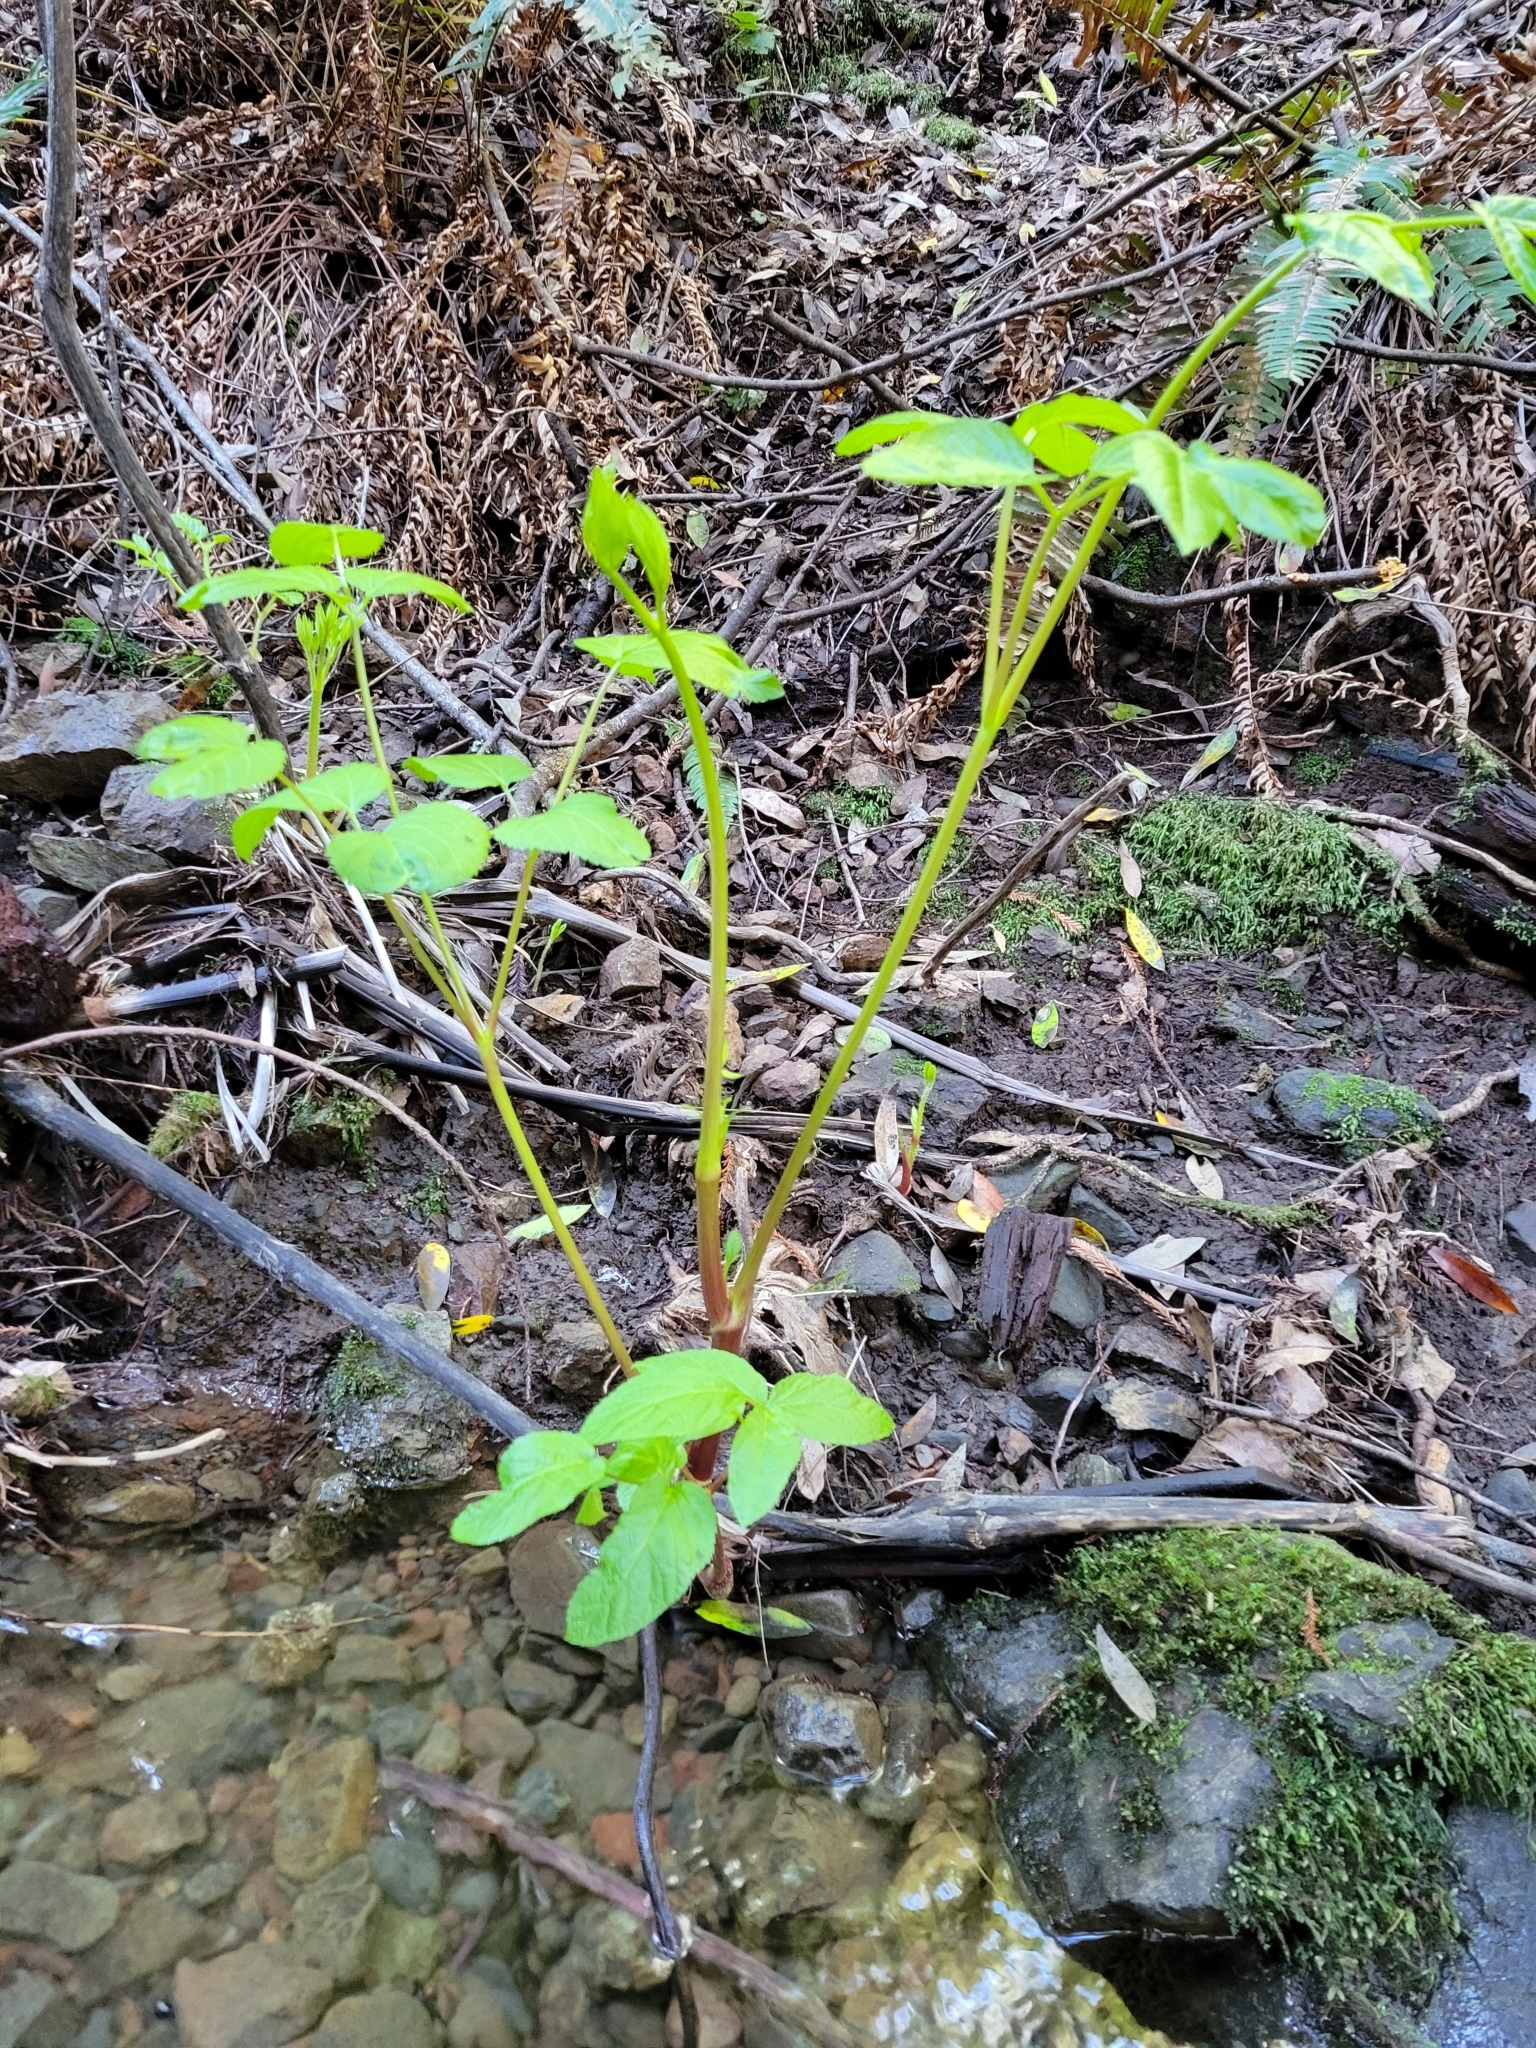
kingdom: Plantae
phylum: Tracheophyta
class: Magnoliopsida
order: Apiales
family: Araliaceae
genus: Aralia
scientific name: Aralia californica
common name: California-ginseng
